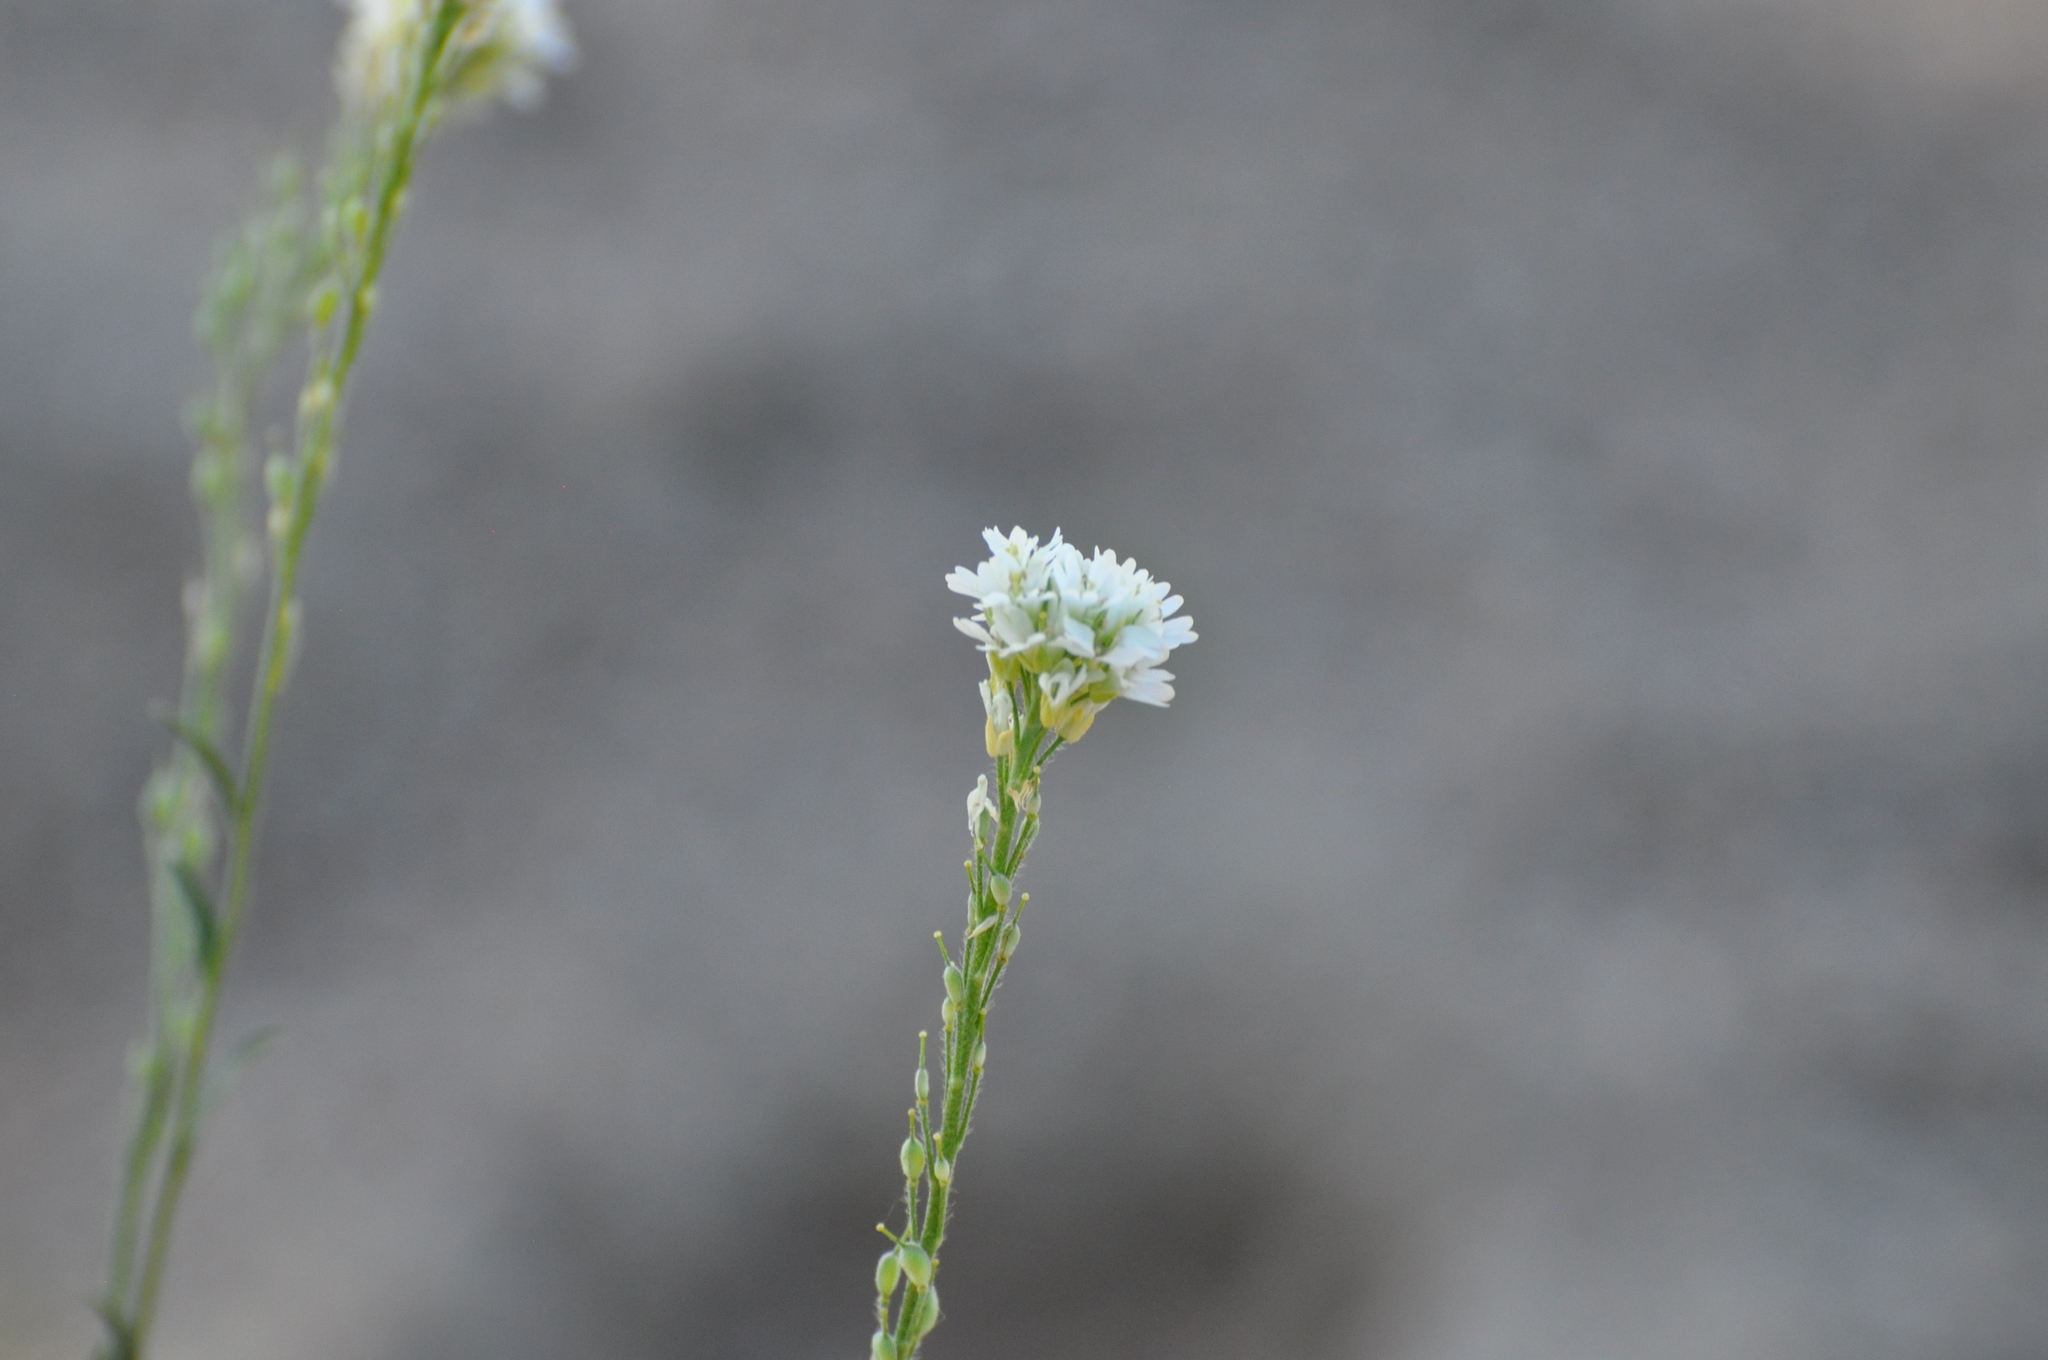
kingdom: Plantae
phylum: Tracheophyta
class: Magnoliopsida
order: Brassicales
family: Brassicaceae
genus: Berteroa
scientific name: Berteroa incana
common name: Hoary alison
